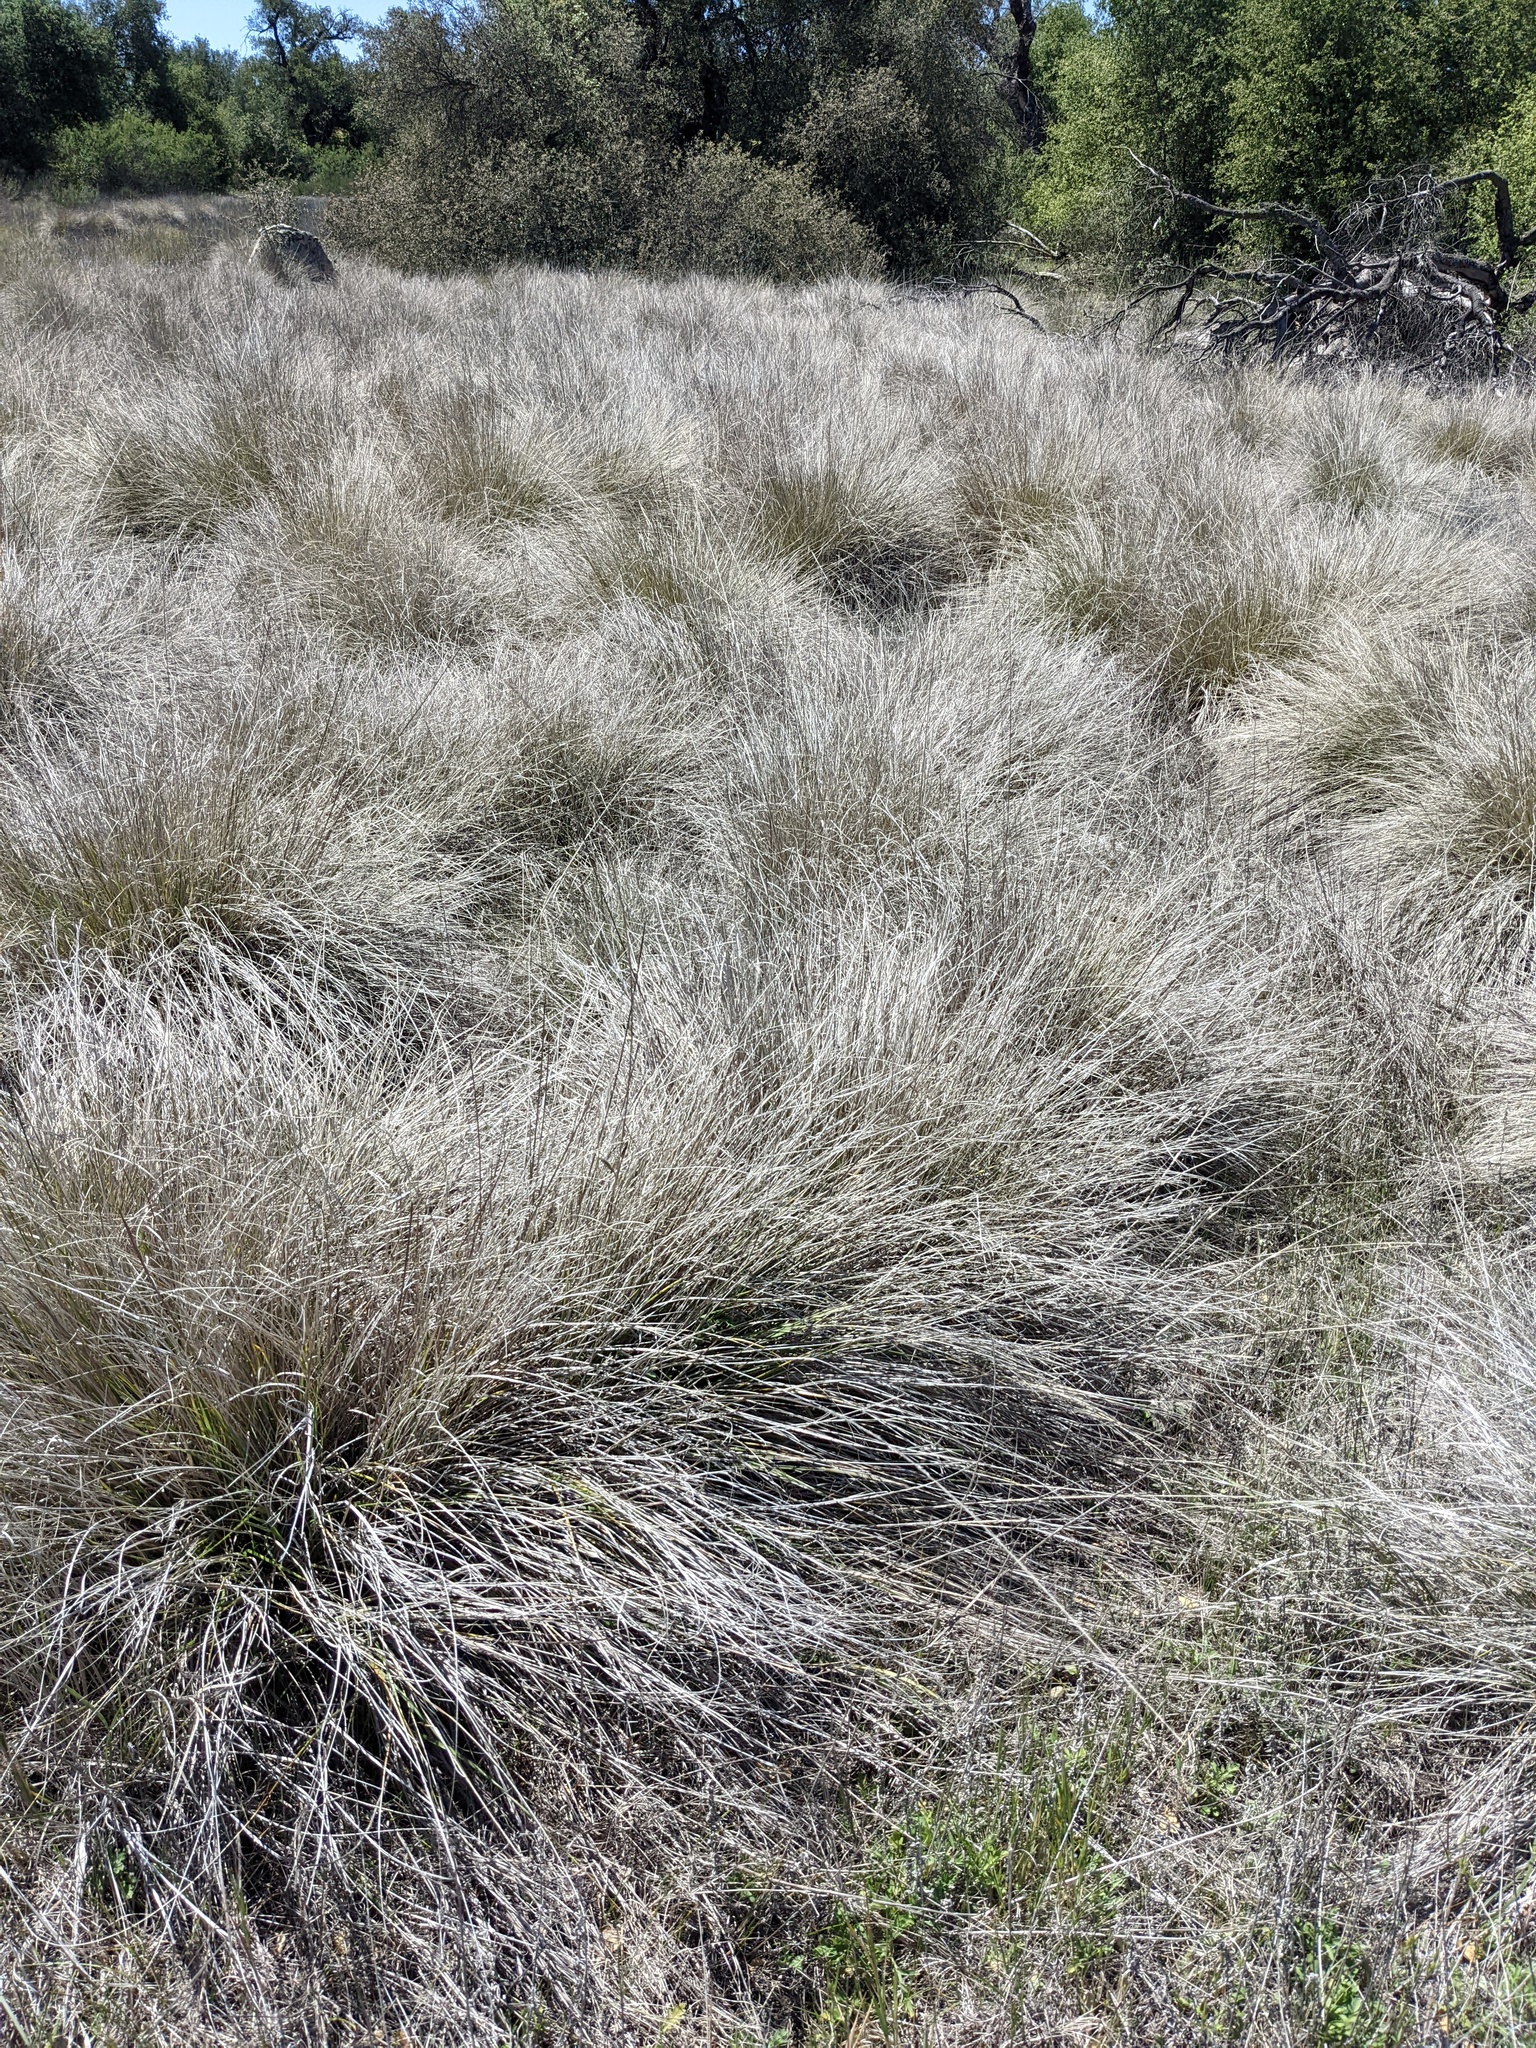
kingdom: Plantae
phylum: Tracheophyta
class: Liliopsida
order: Poales
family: Poaceae
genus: Muhlenbergia
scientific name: Muhlenbergia rigens
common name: Deer grass
